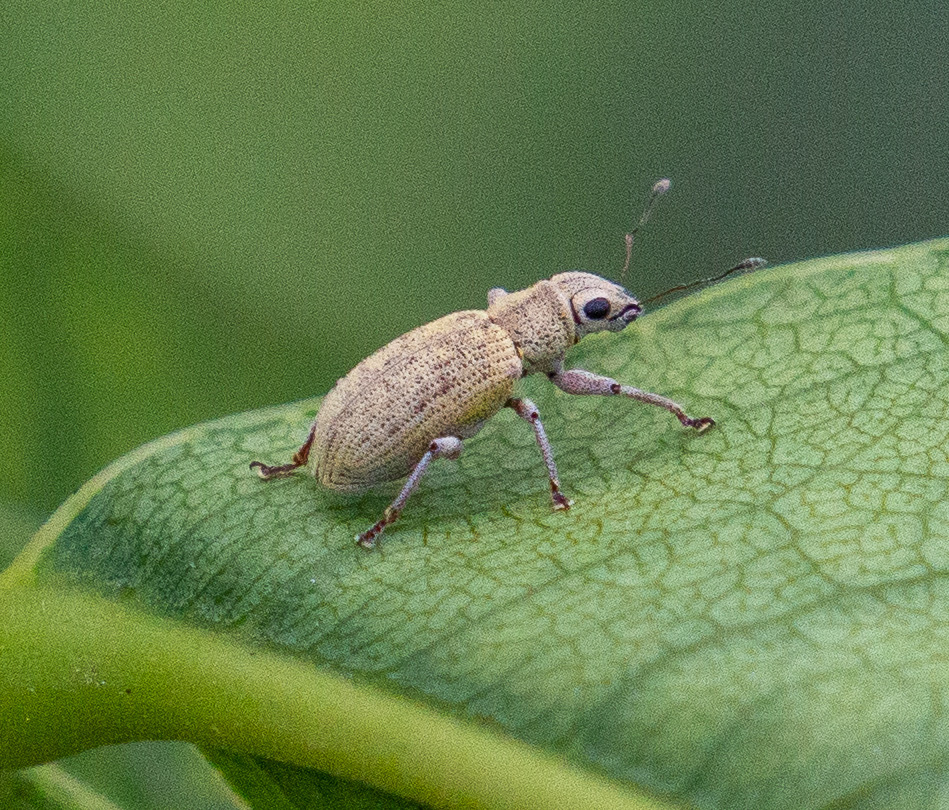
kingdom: Animalia
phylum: Arthropoda
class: Insecta
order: Coleoptera
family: Curculionidae
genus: Plectrophoroides
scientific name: Plectrophoroides lutra
